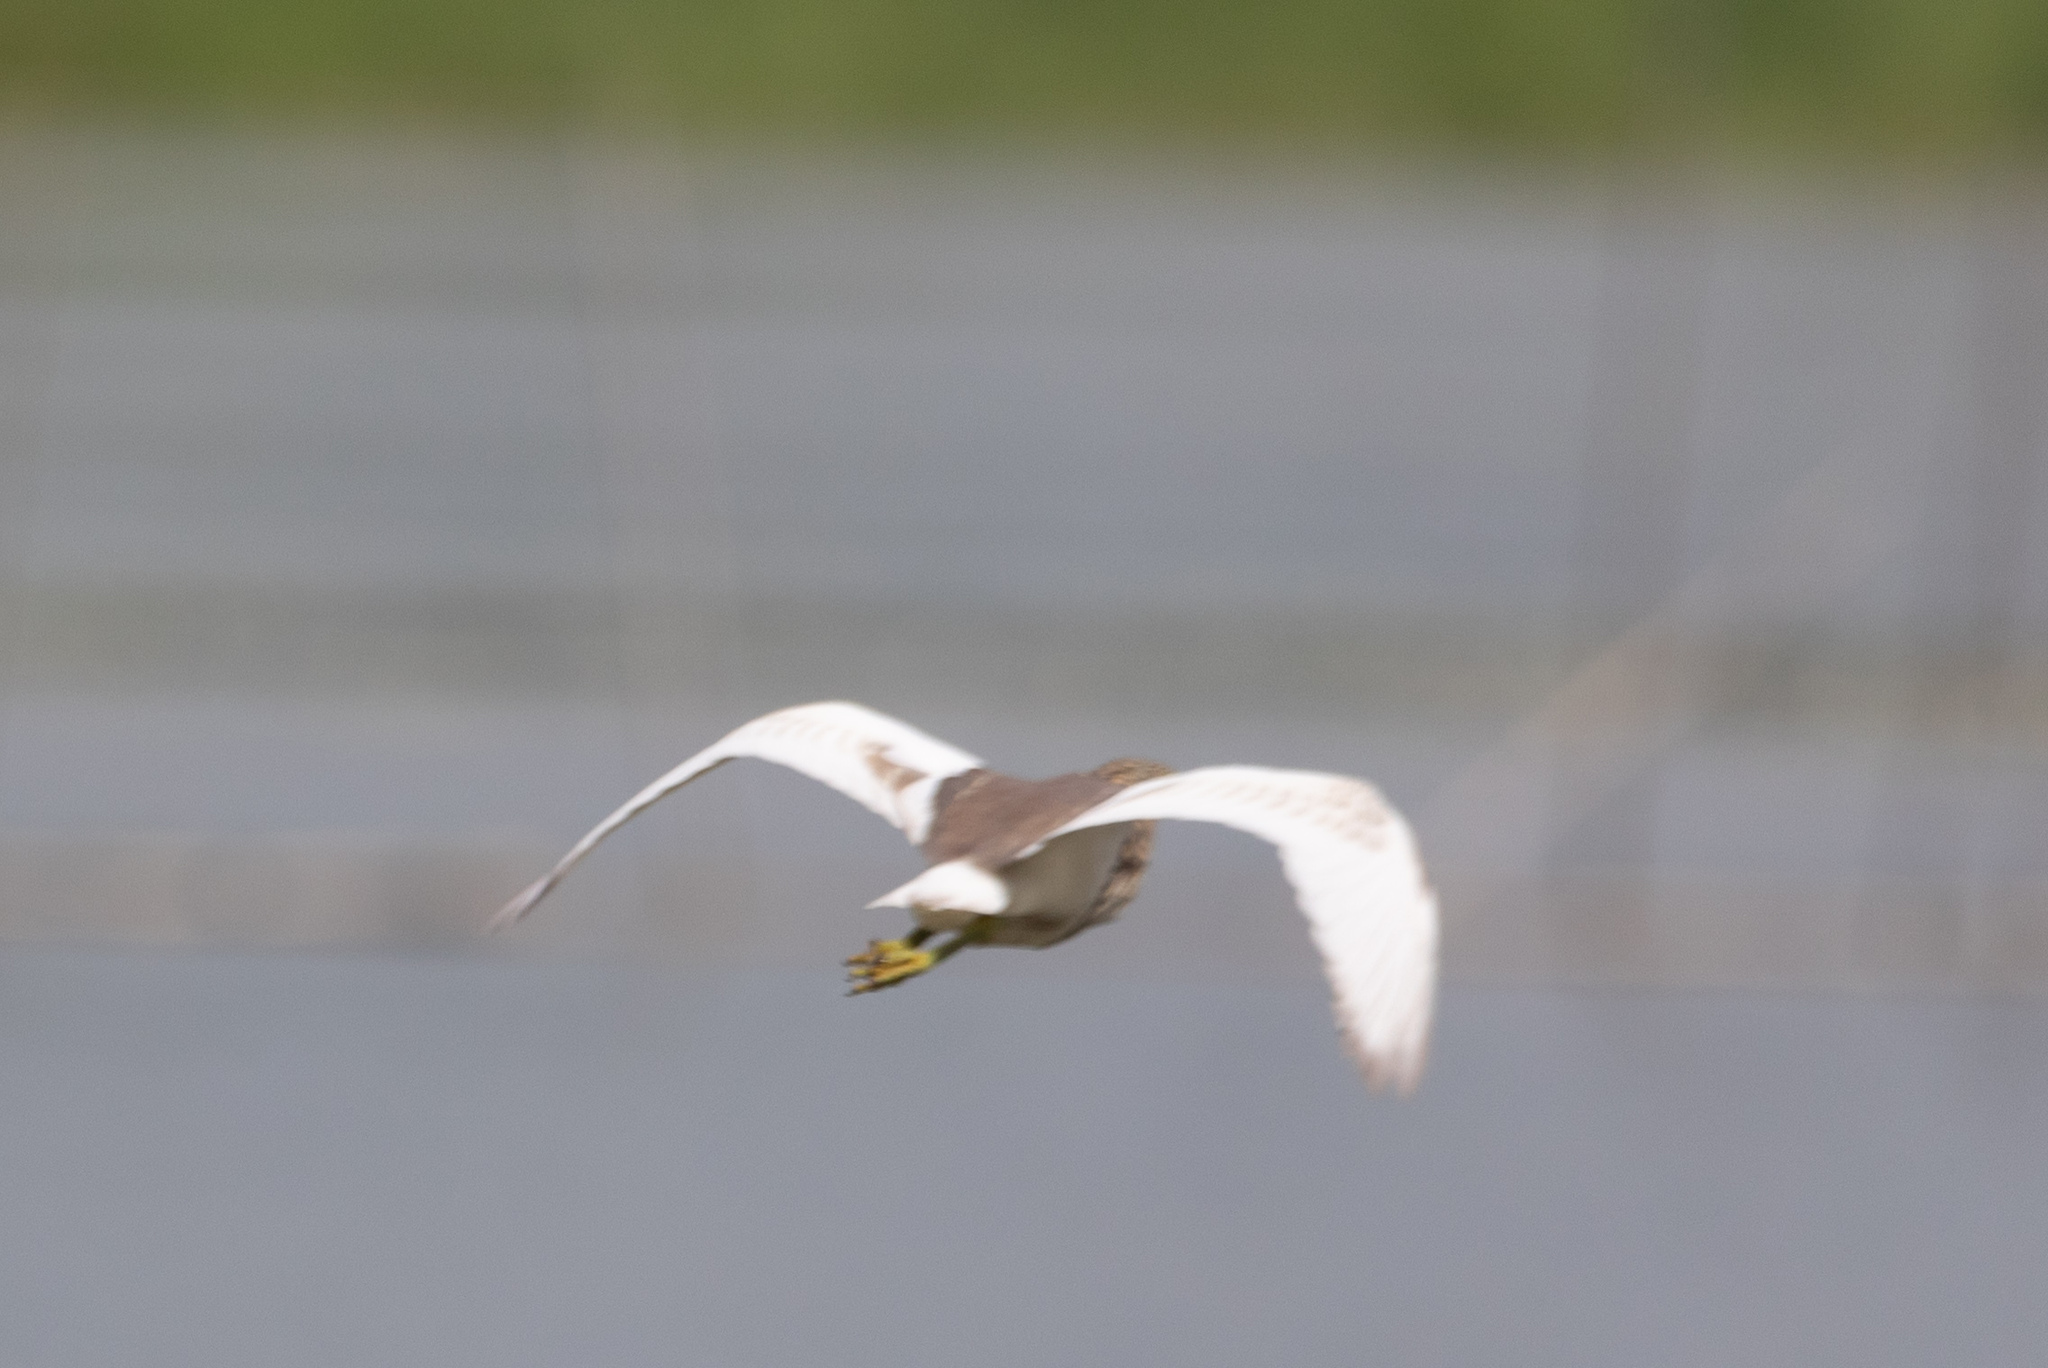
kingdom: Animalia
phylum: Chordata
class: Aves
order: Pelecaniformes
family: Ardeidae
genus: Ardeola
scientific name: Ardeola bacchus
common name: Chinese pond heron
